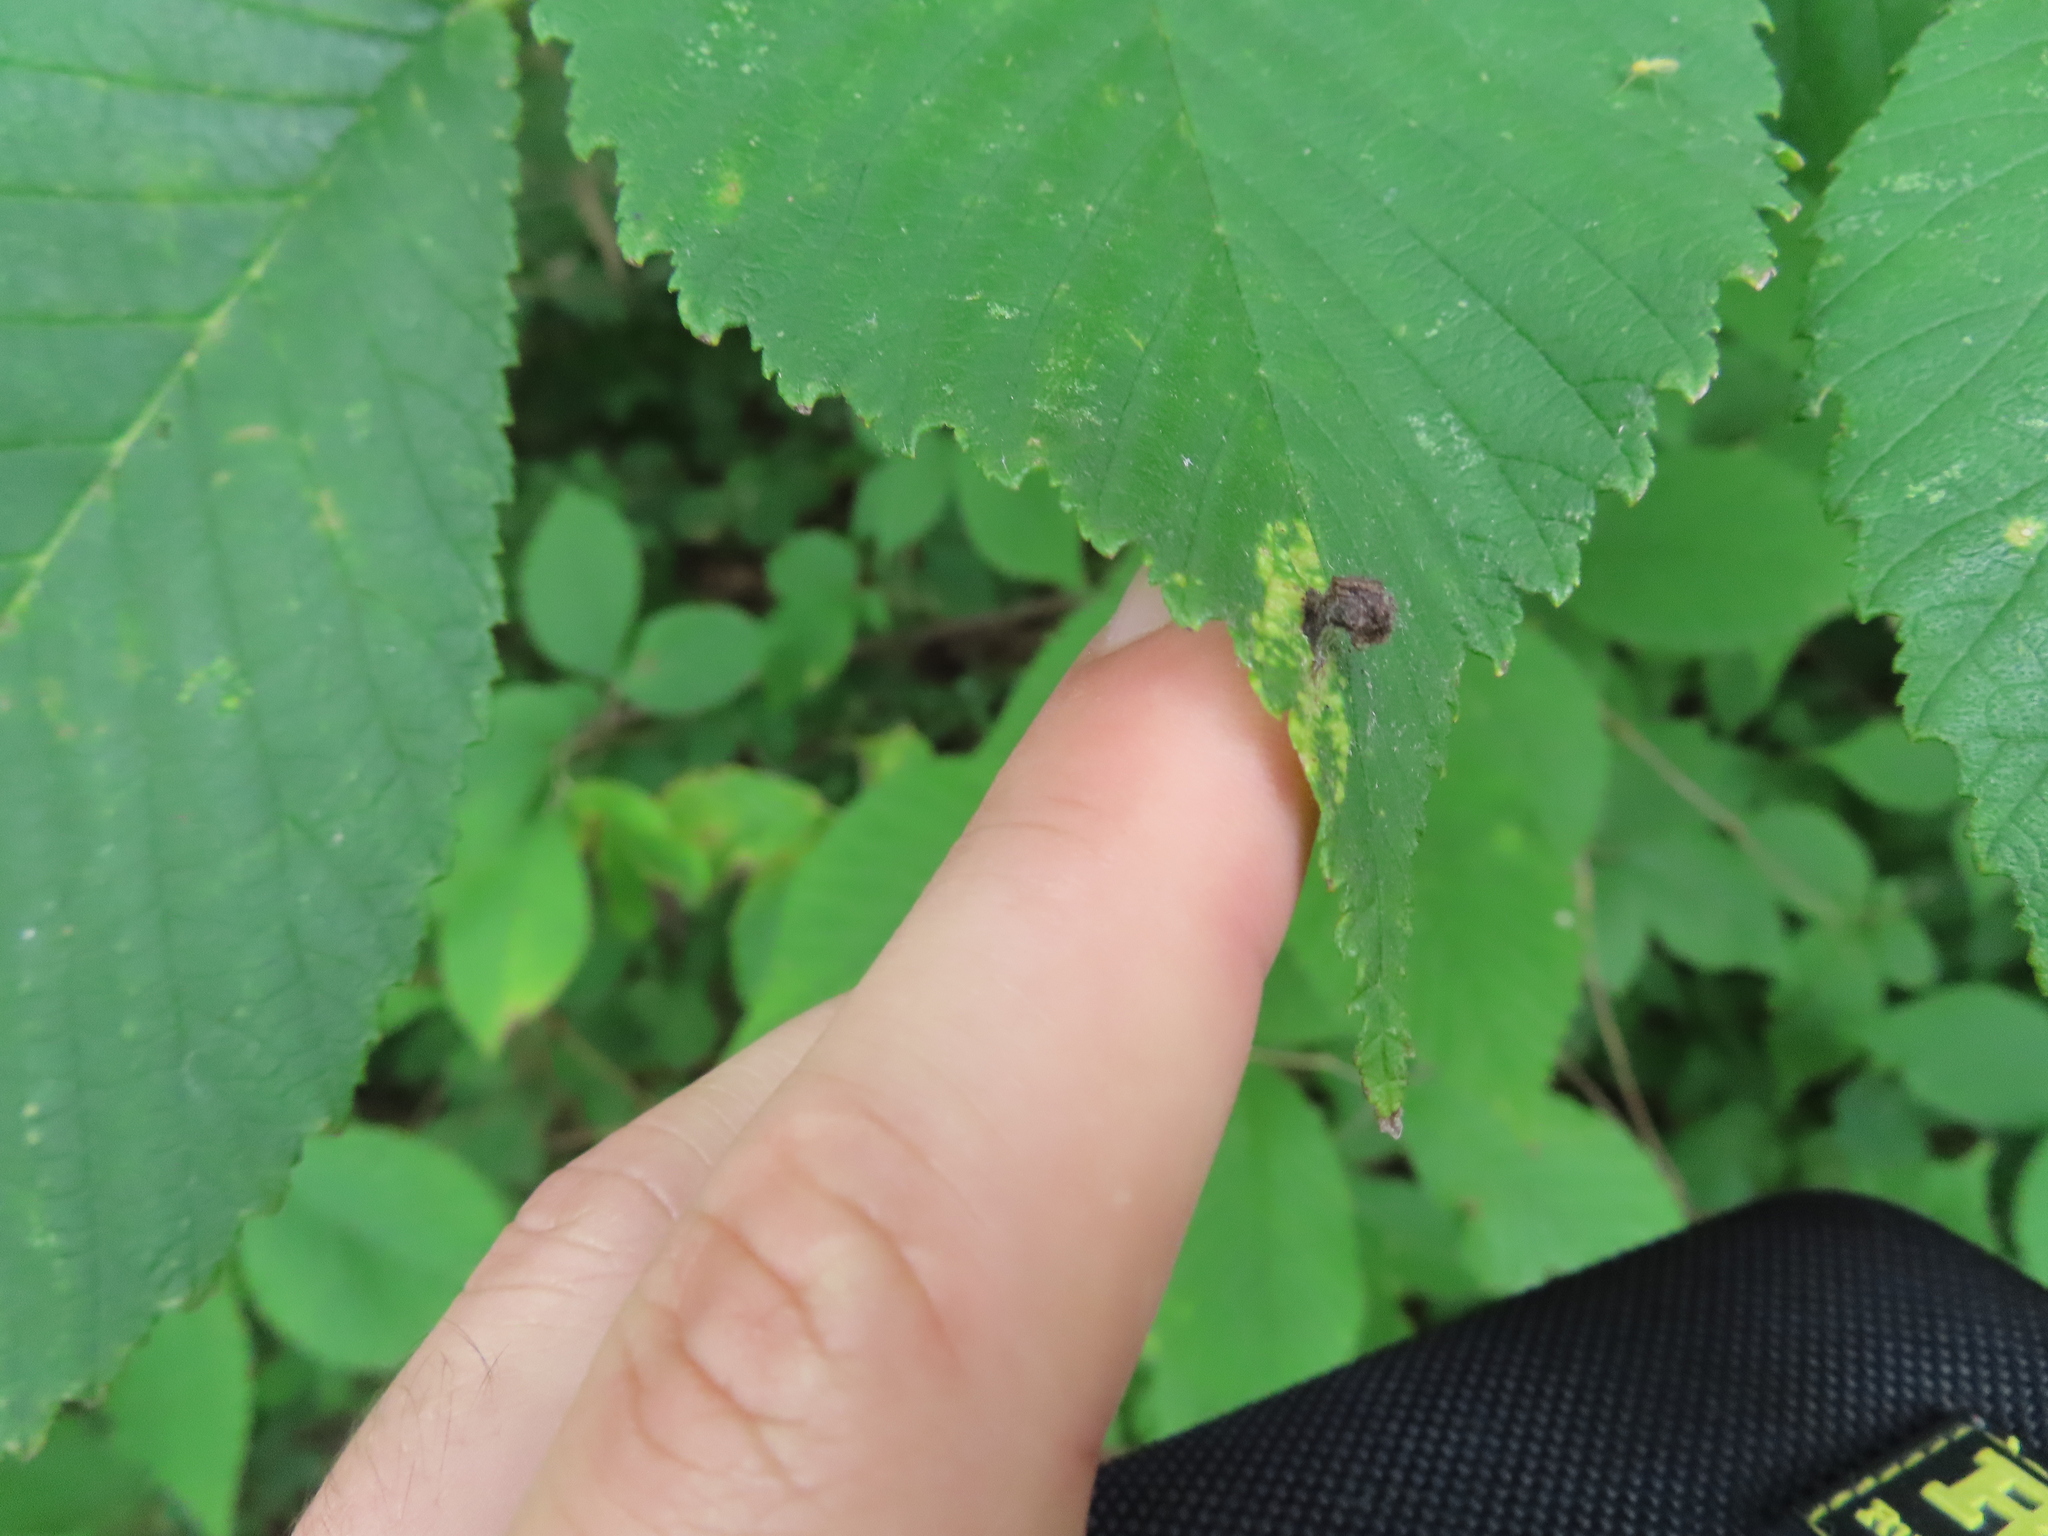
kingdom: Animalia
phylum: Arthropoda
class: Insecta
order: Hemiptera
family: Aphididae
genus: Tetraneura
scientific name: Tetraneura nigriabdominalis
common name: Aphid
